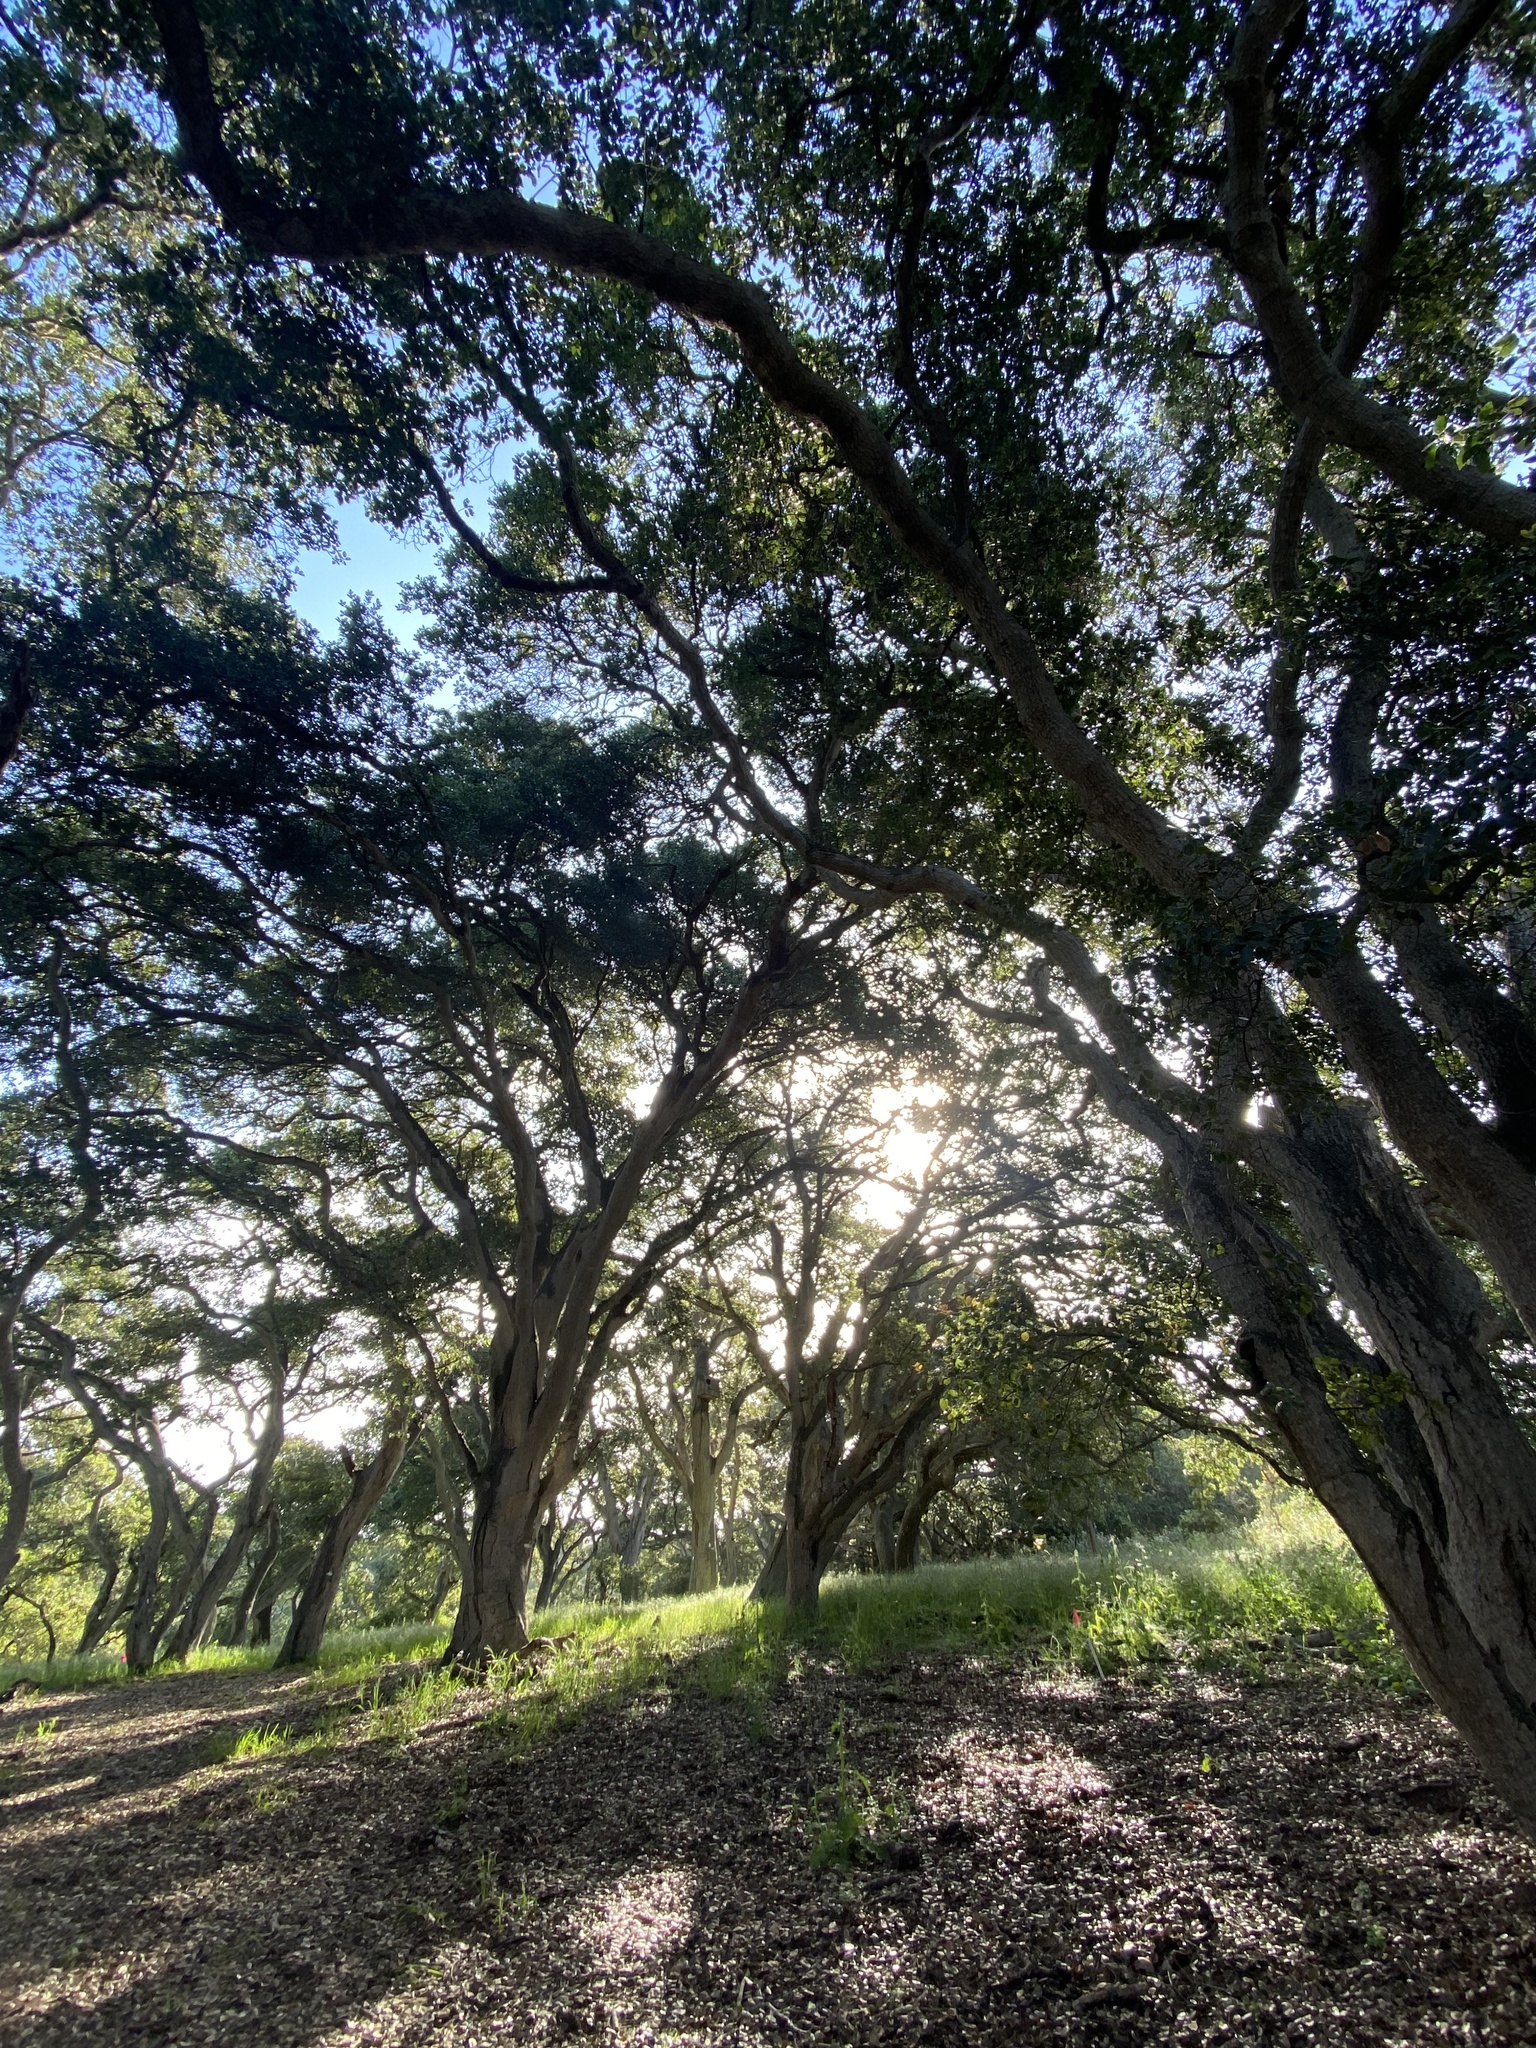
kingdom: Plantae
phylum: Tracheophyta
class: Magnoliopsida
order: Fagales
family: Fagaceae
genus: Quercus
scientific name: Quercus agrifolia
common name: California live oak
